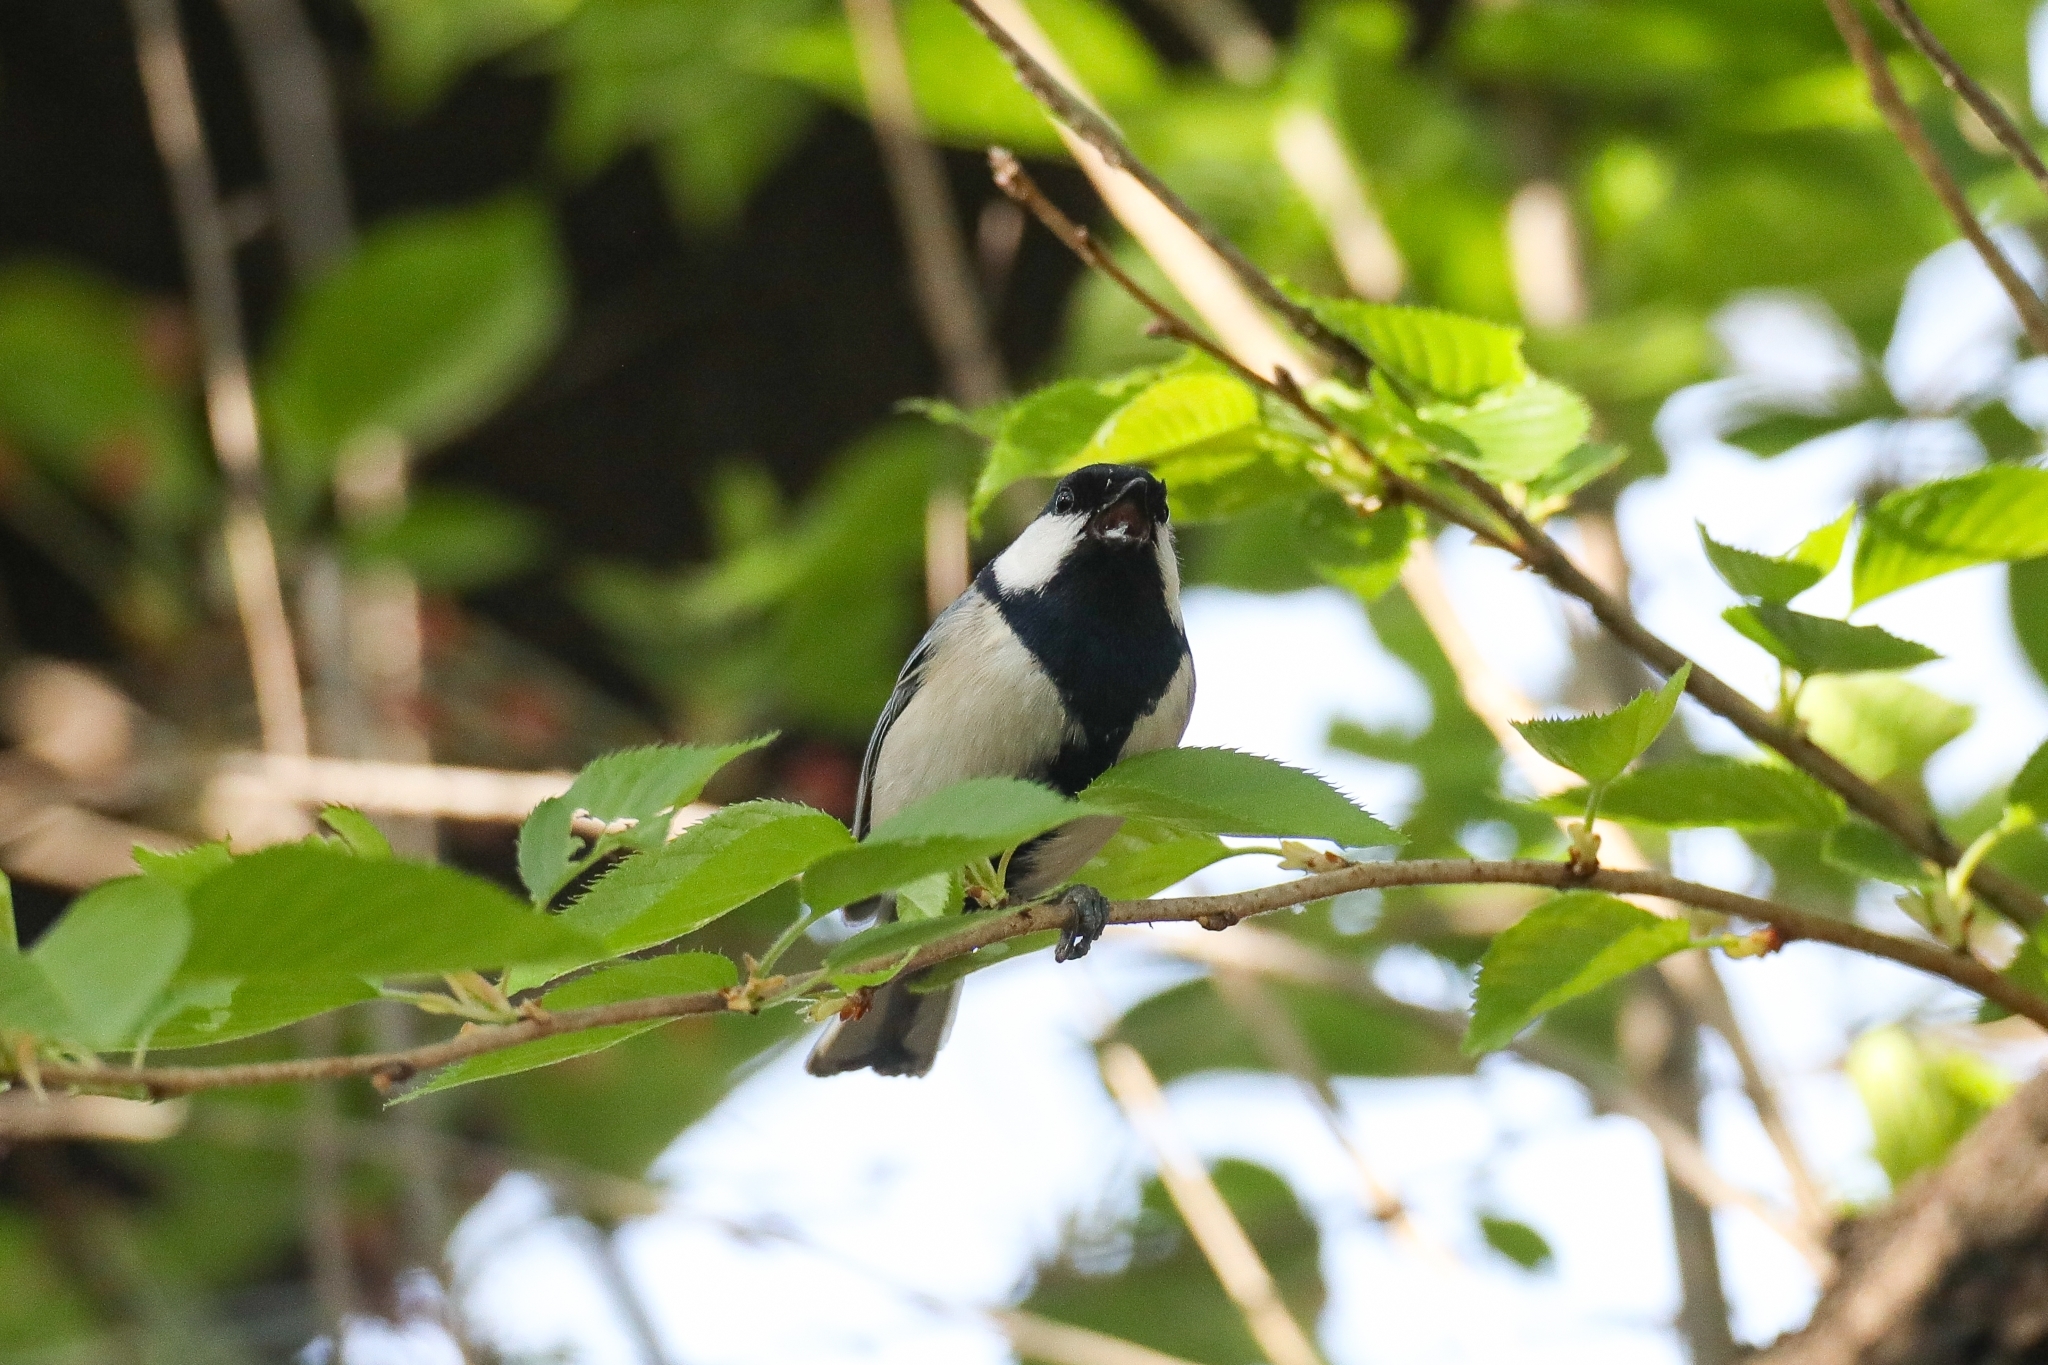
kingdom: Animalia
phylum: Chordata
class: Aves
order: Passeriformes
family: Paridae
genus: Parus
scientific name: Parus minor
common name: Japanese tit
